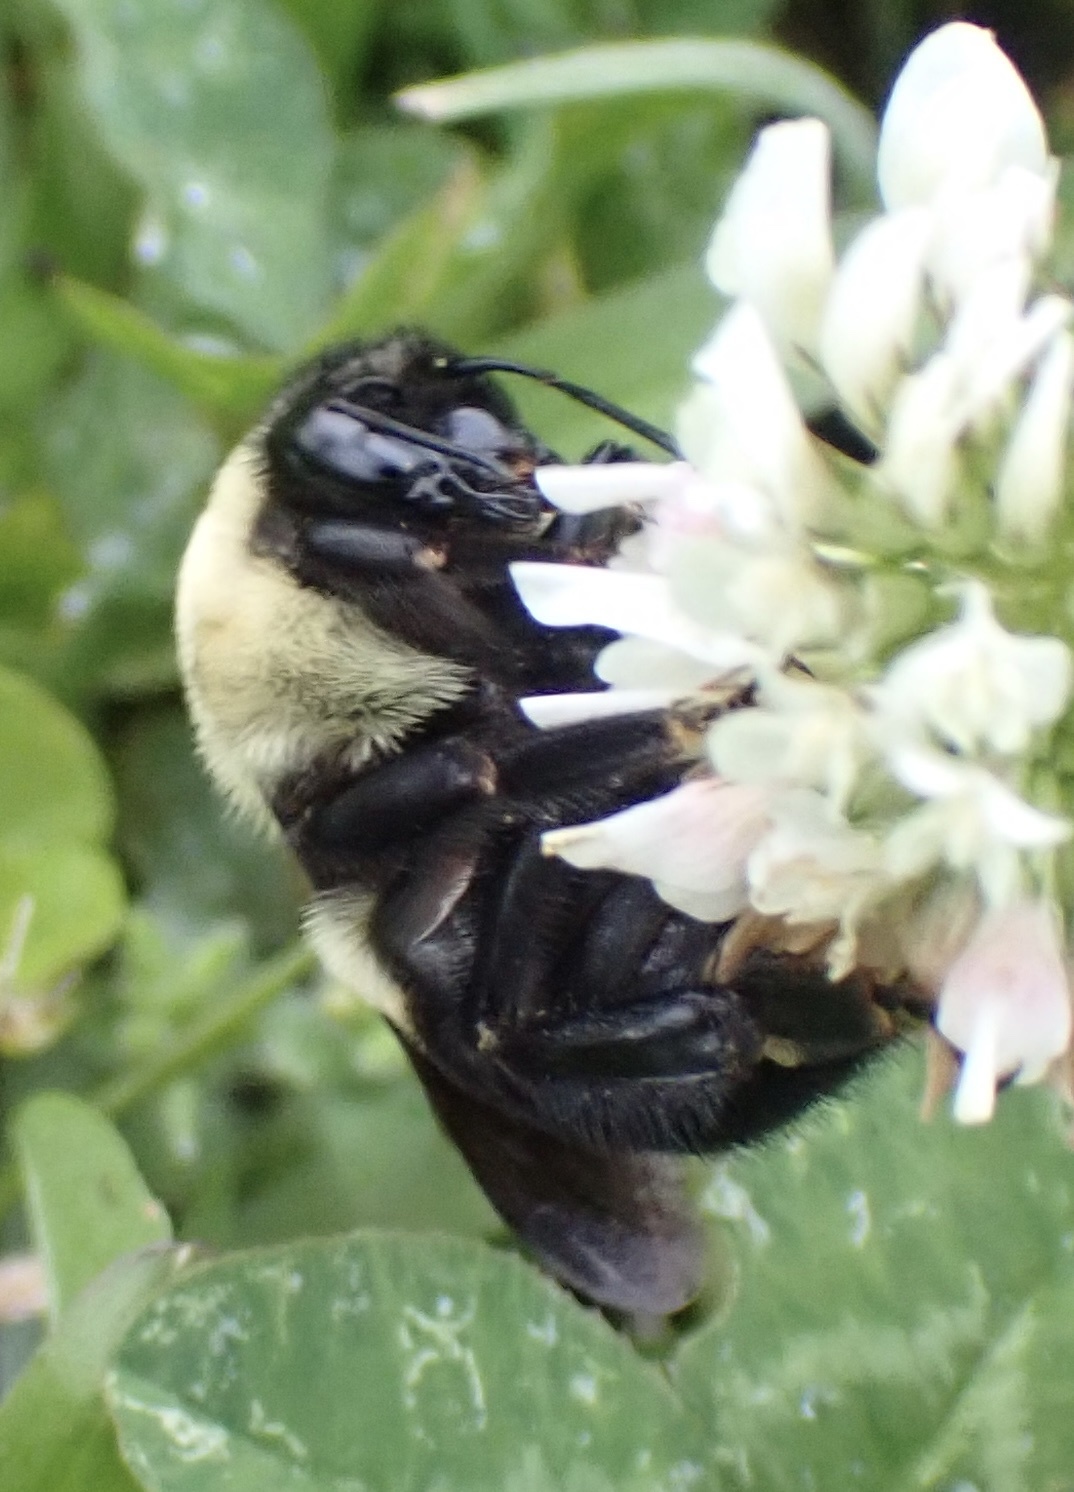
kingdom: Animalia
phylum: Arthropoda
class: Insecta
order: Hymenoptera
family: Apidae
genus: Bombus
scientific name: Bombus griseocollis
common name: Brown-belted bumble bee
